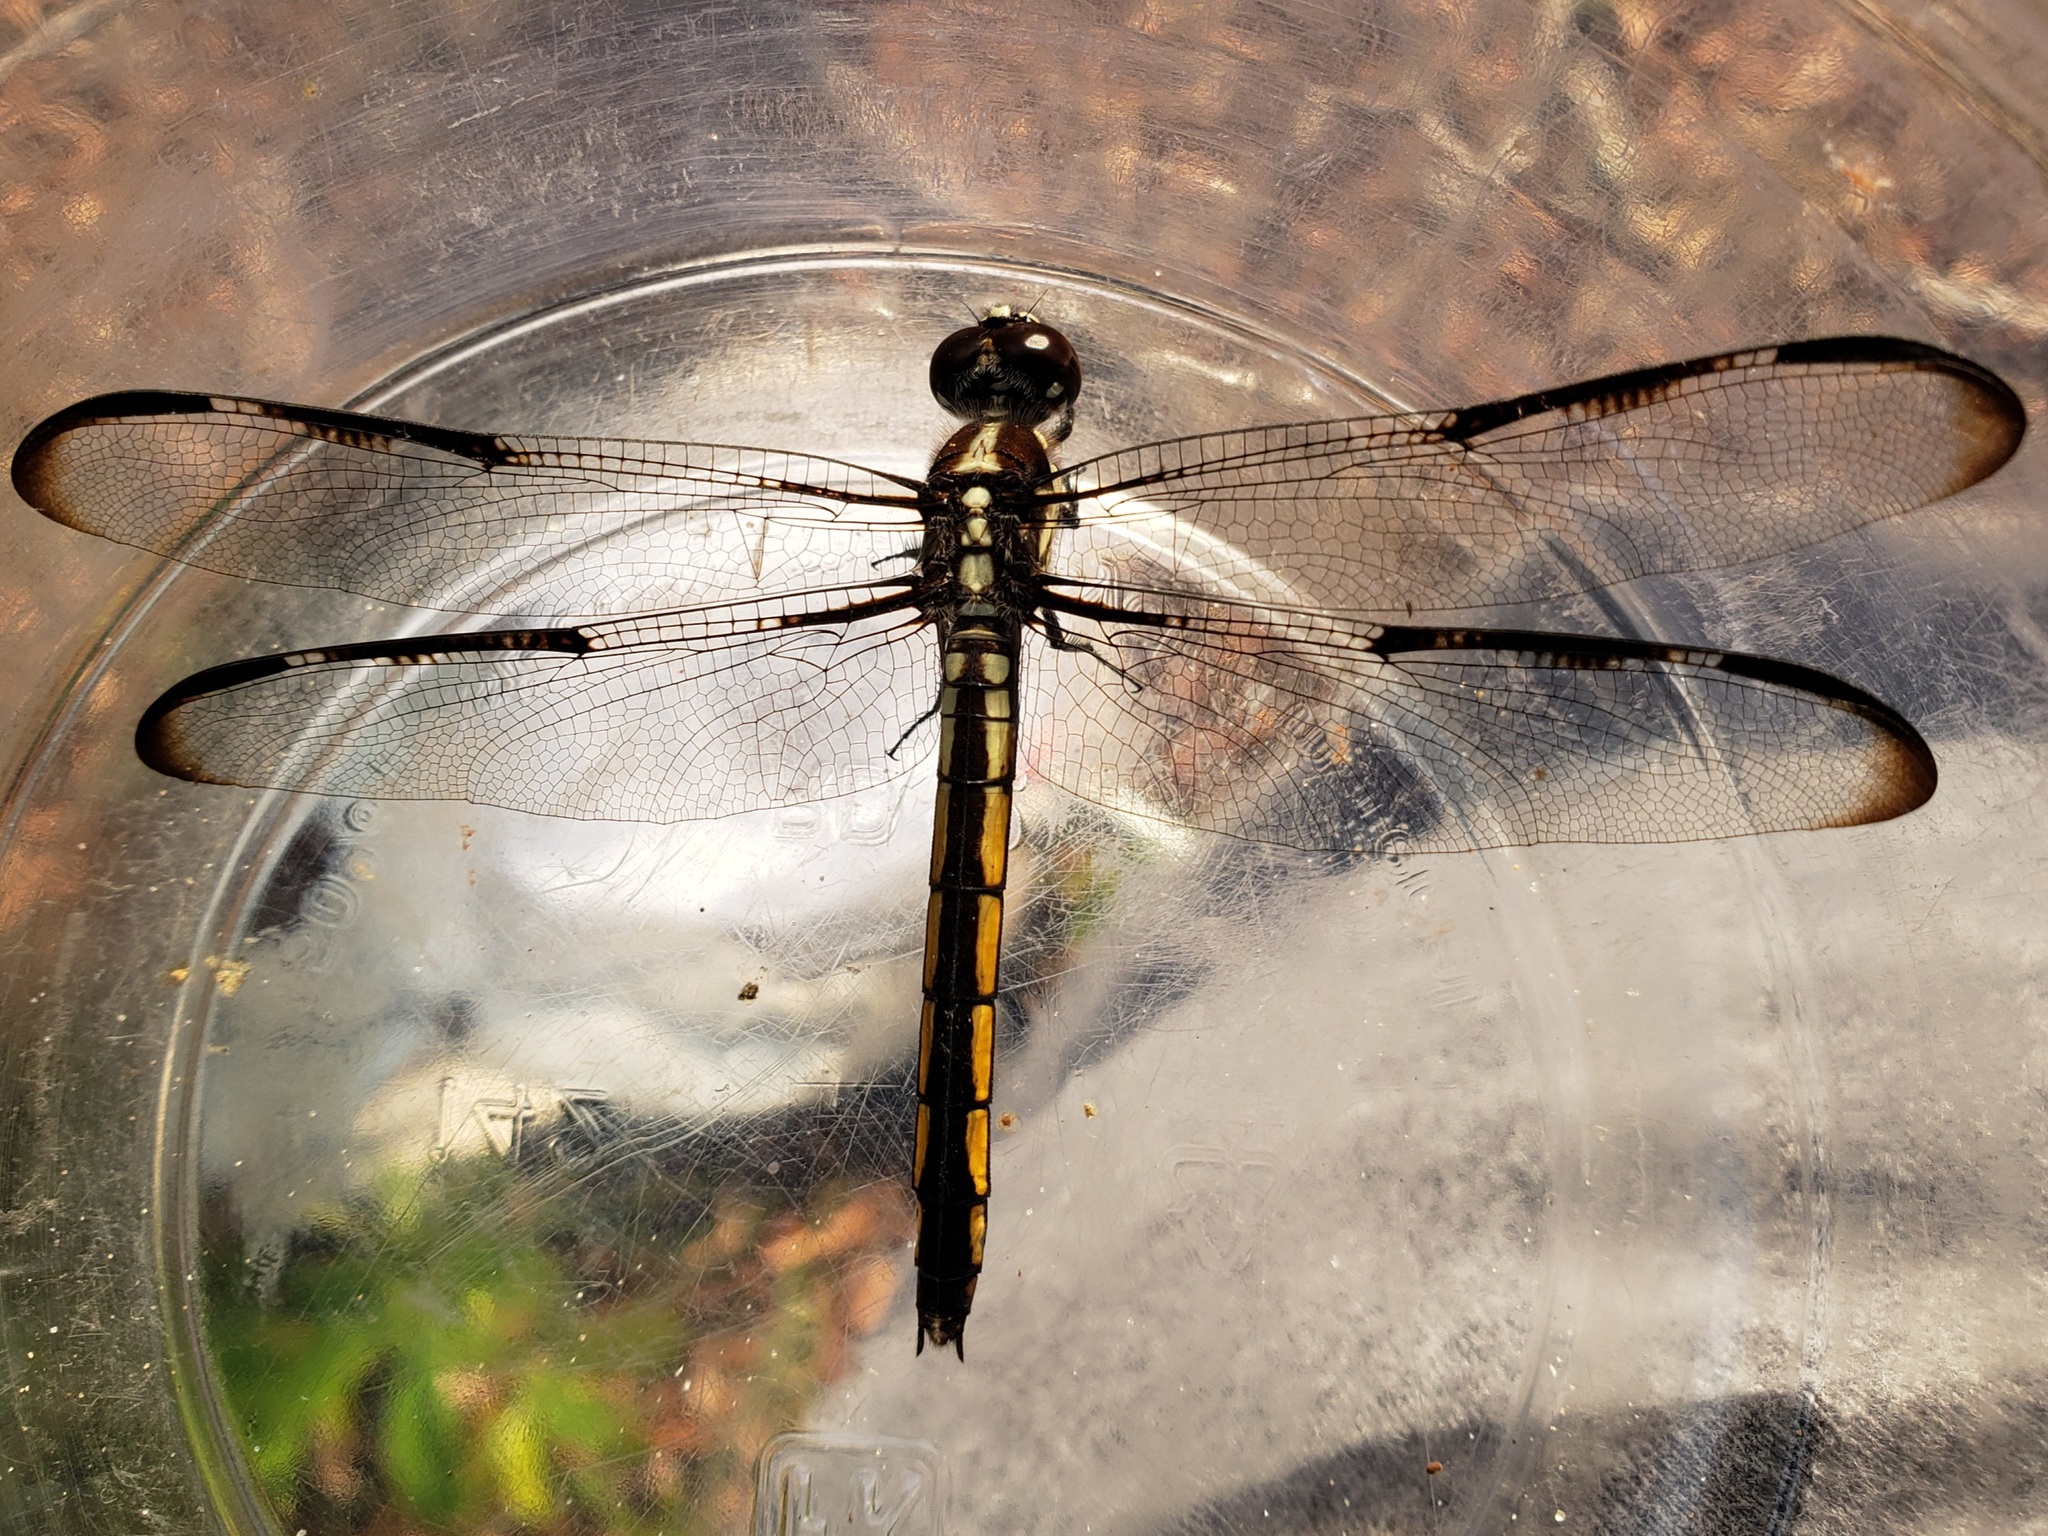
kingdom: Animalia
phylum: Arthropoda
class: Insecta
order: Odonata
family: Libellulidae
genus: Libellula
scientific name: Libellula axilena
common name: Bar-winged skimmer
